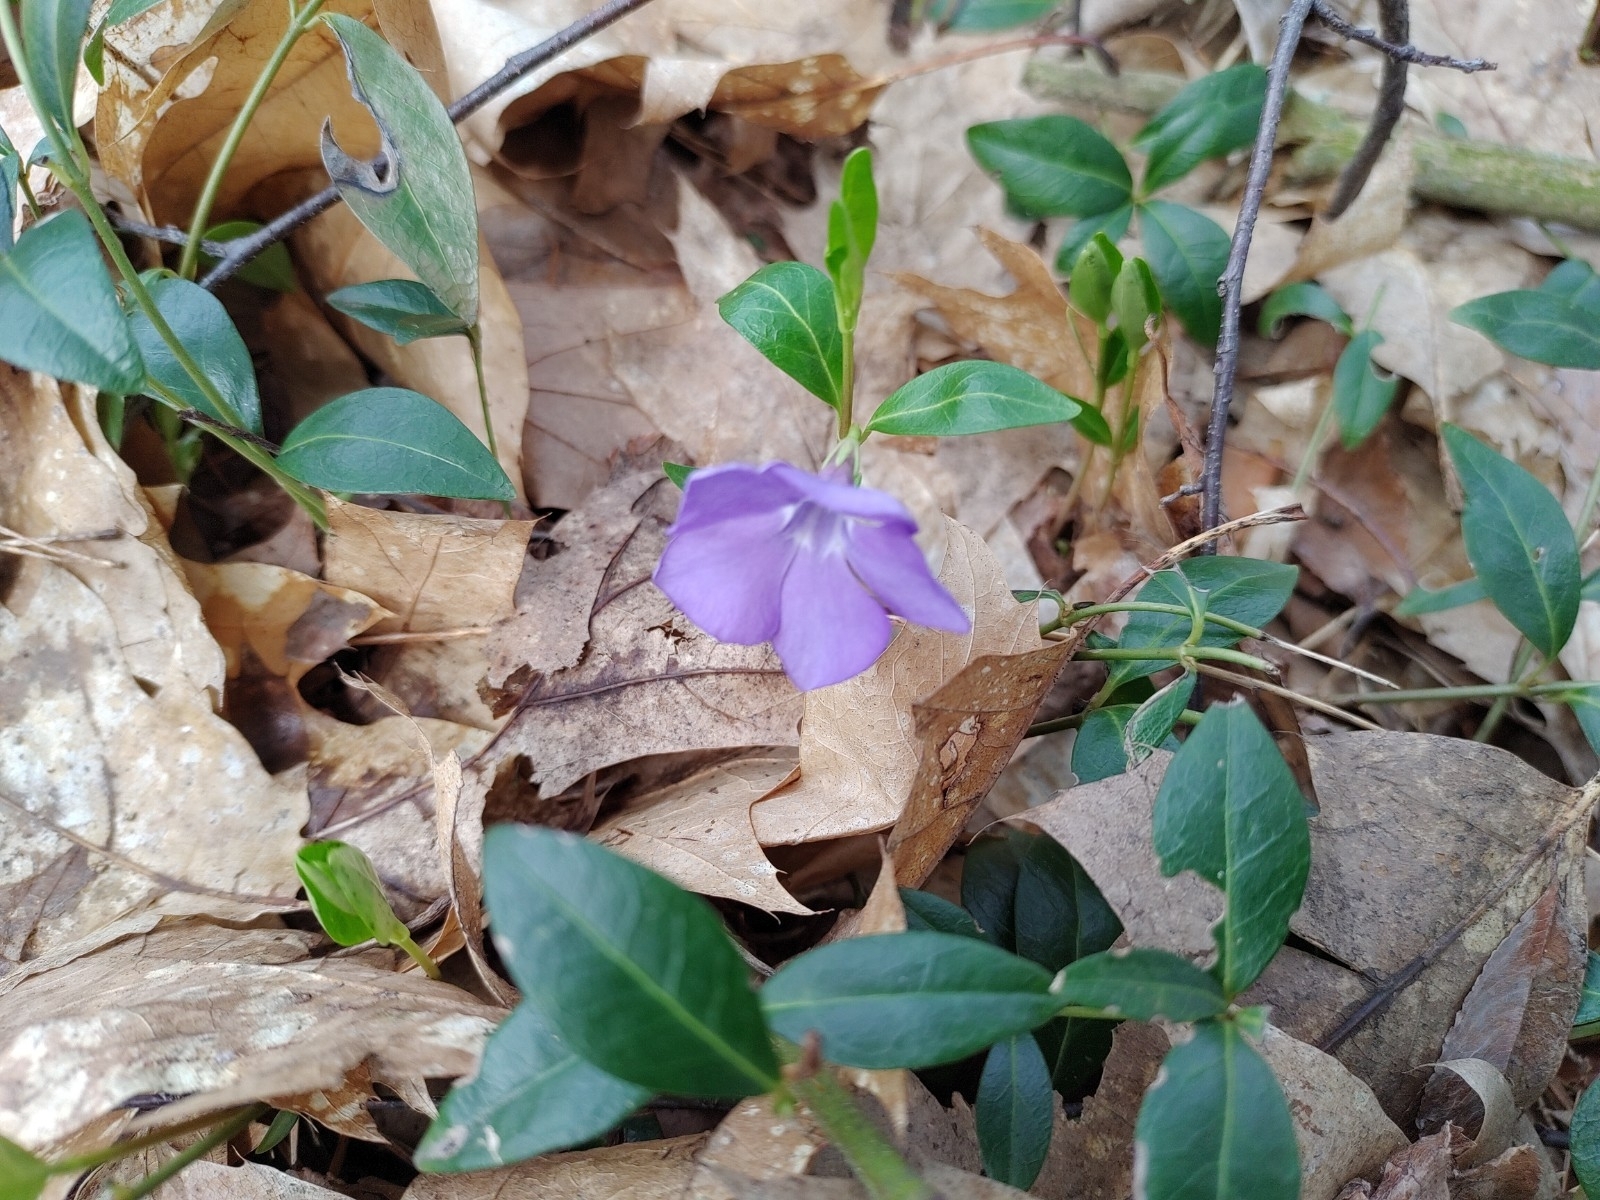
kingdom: Plantae
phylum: Tracheophyta
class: Magnoliopsida
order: Gentianales
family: Apocynaceae
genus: Vinca
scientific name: Vinca minor
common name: Lesser periwinkle
